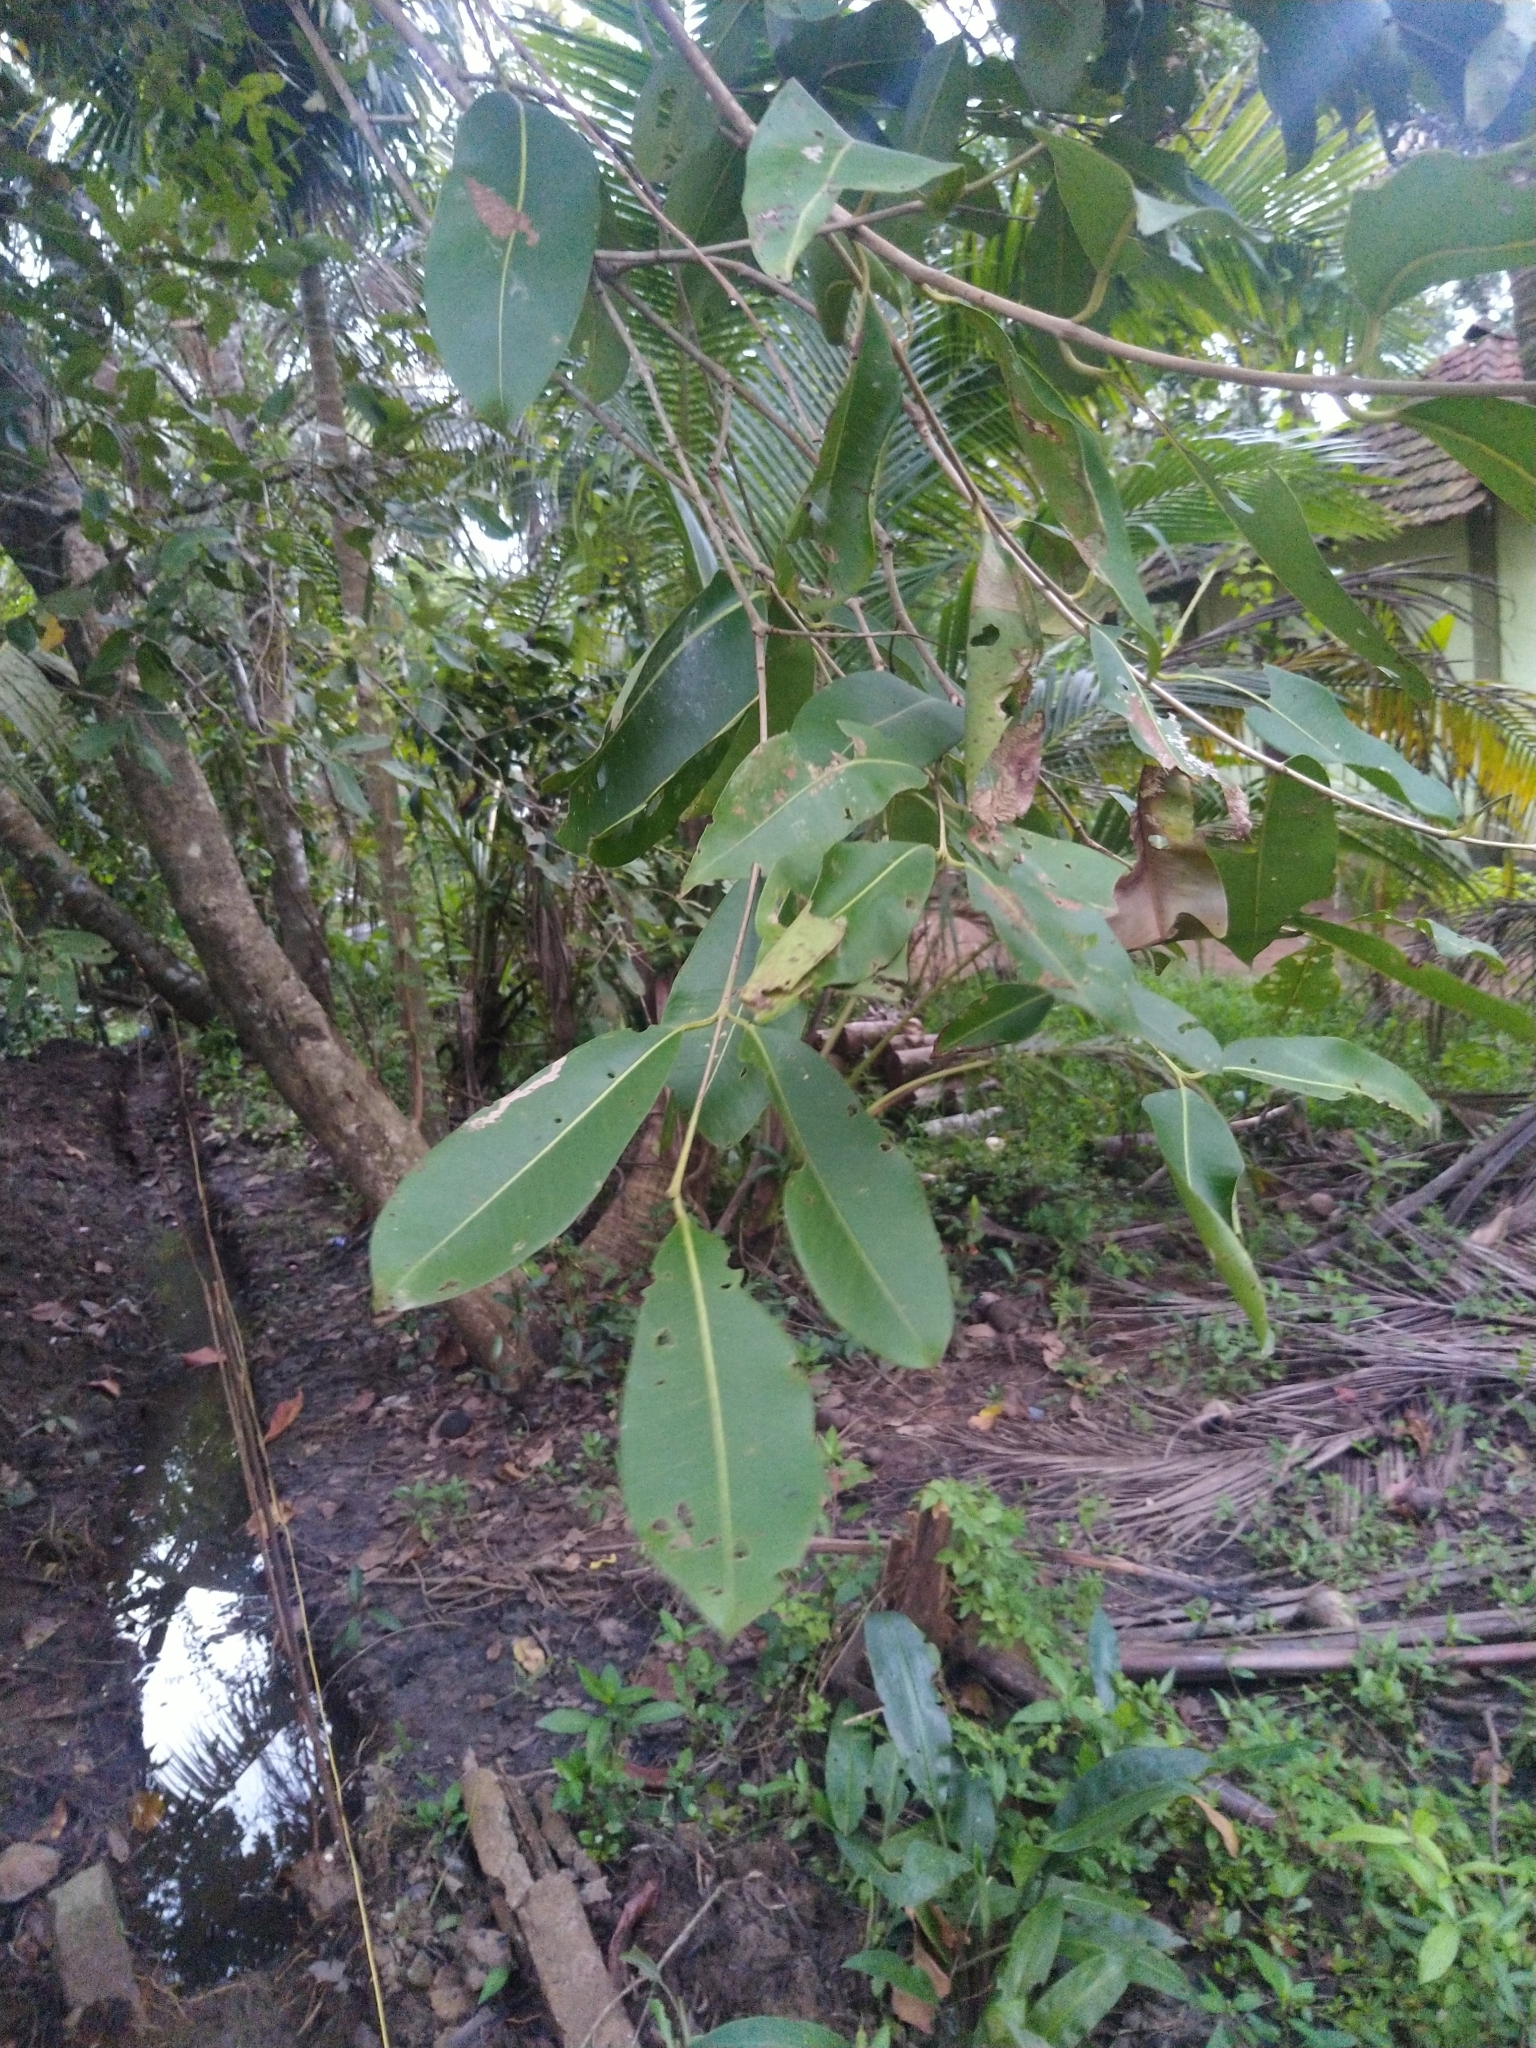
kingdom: Plantae
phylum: Tracheophyta
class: Magnoliopsida
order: Myrtales
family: Myrtaceae
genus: Syzygium
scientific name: Syzygium cumini
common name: Java plum
